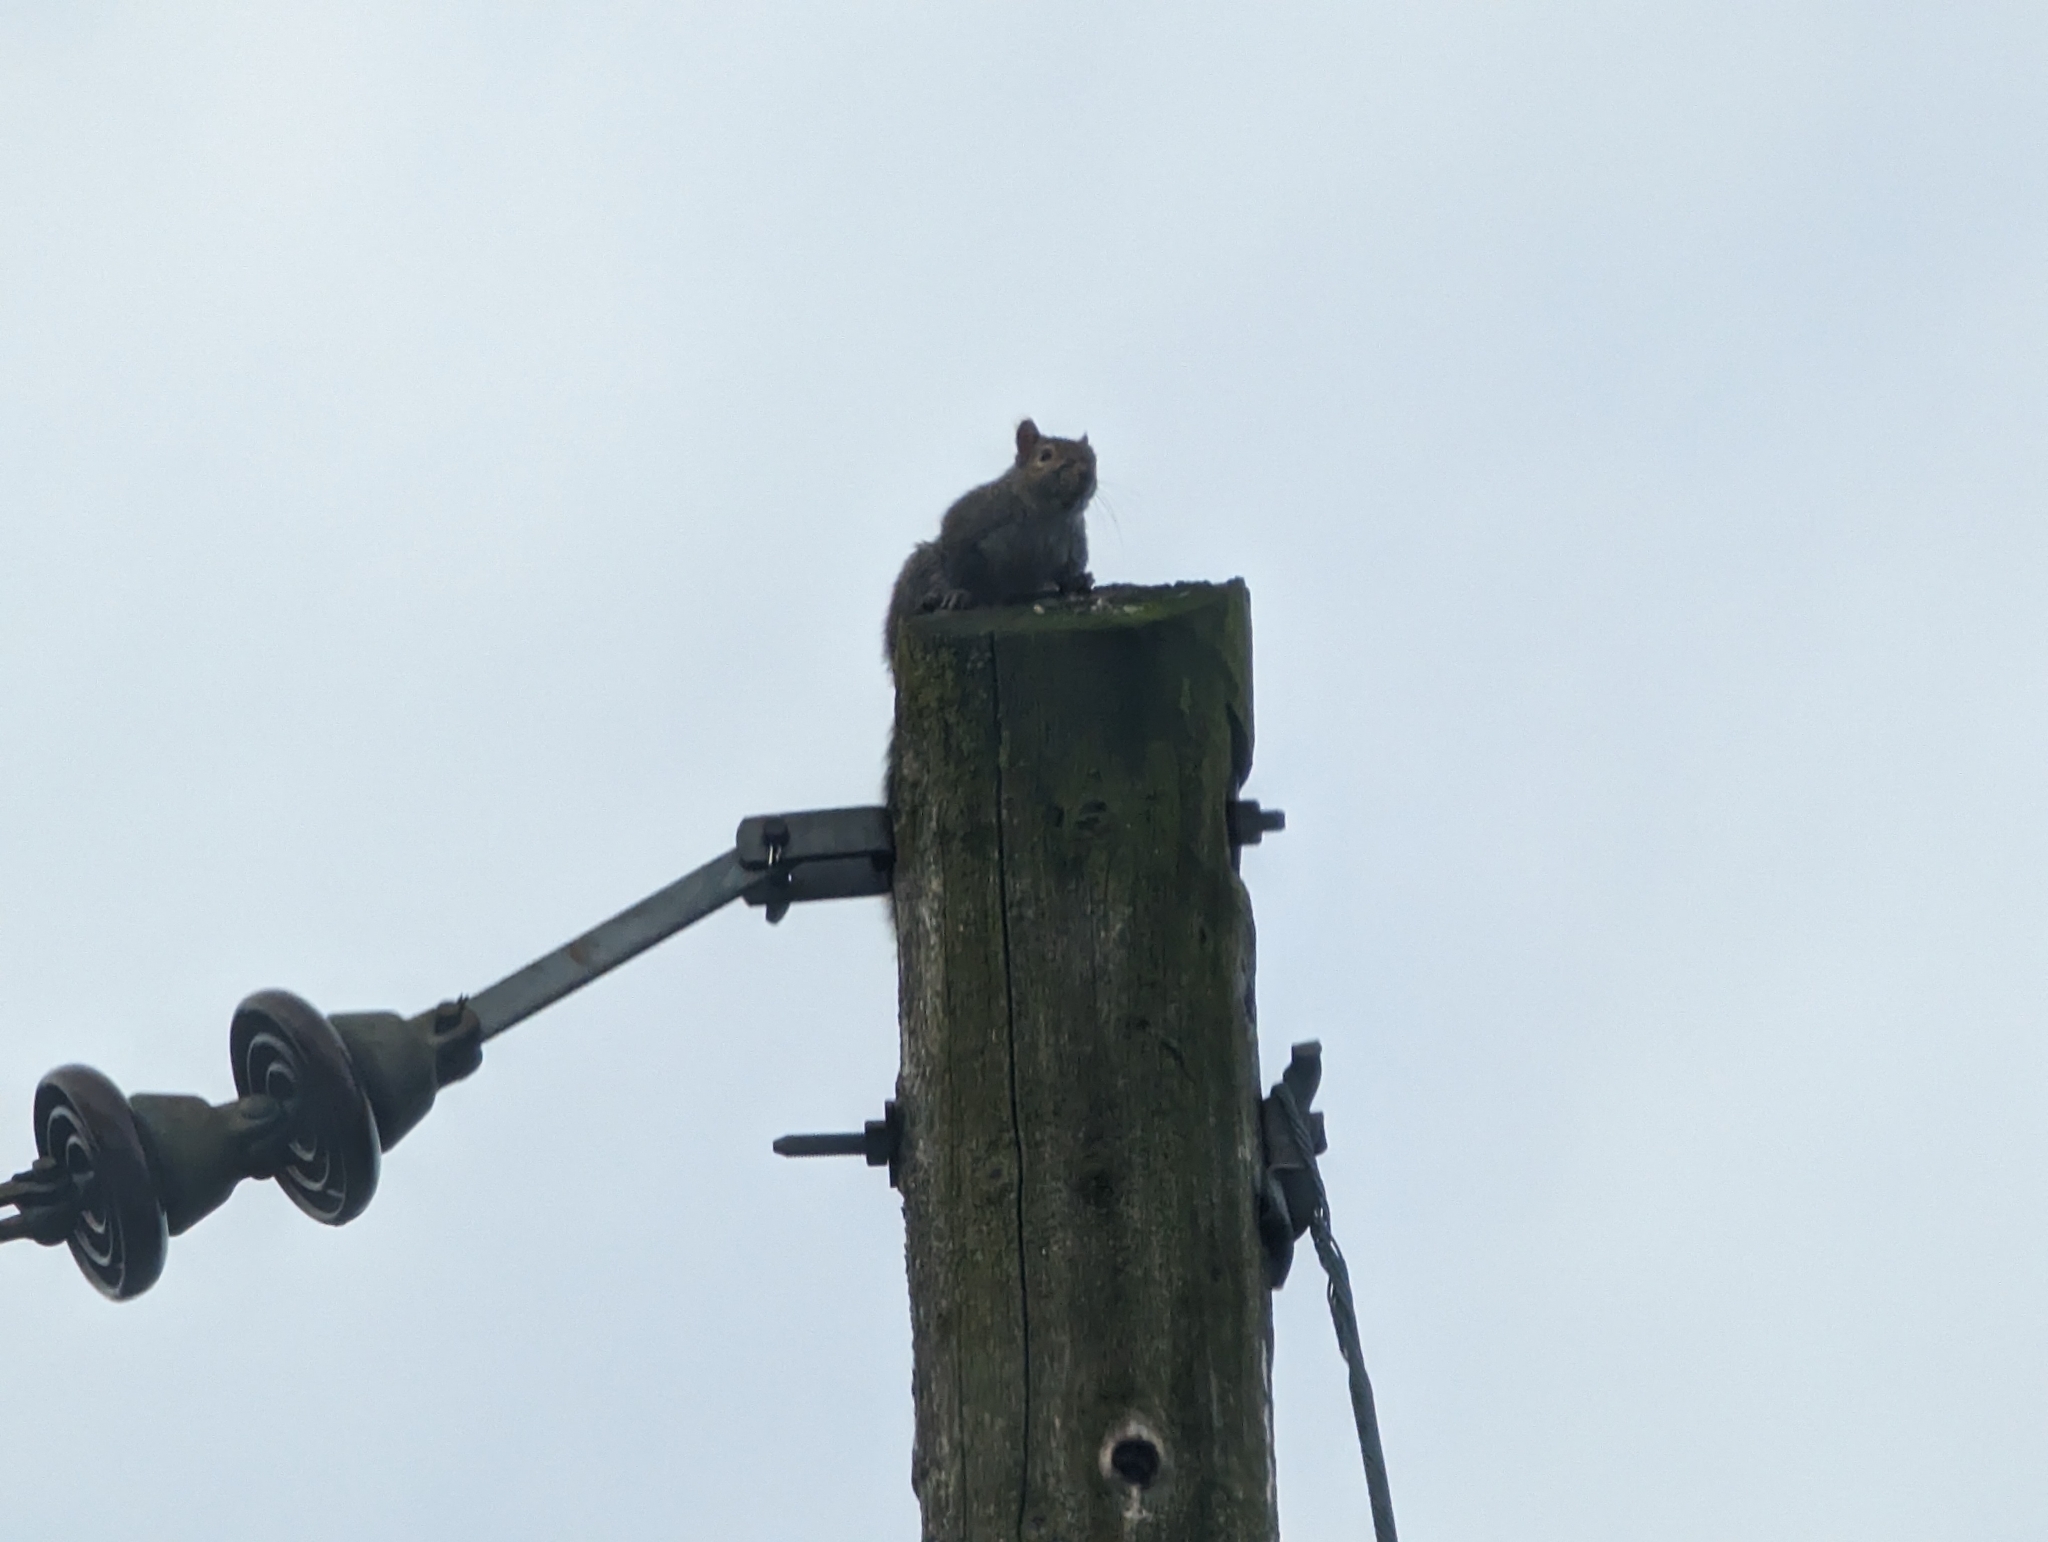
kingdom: Animalia
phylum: Chordata
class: Mammalia
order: Rodentia
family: Sciuridae
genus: Sciurus
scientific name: Sciurus carolinensis
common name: Eastern gray squirrel
